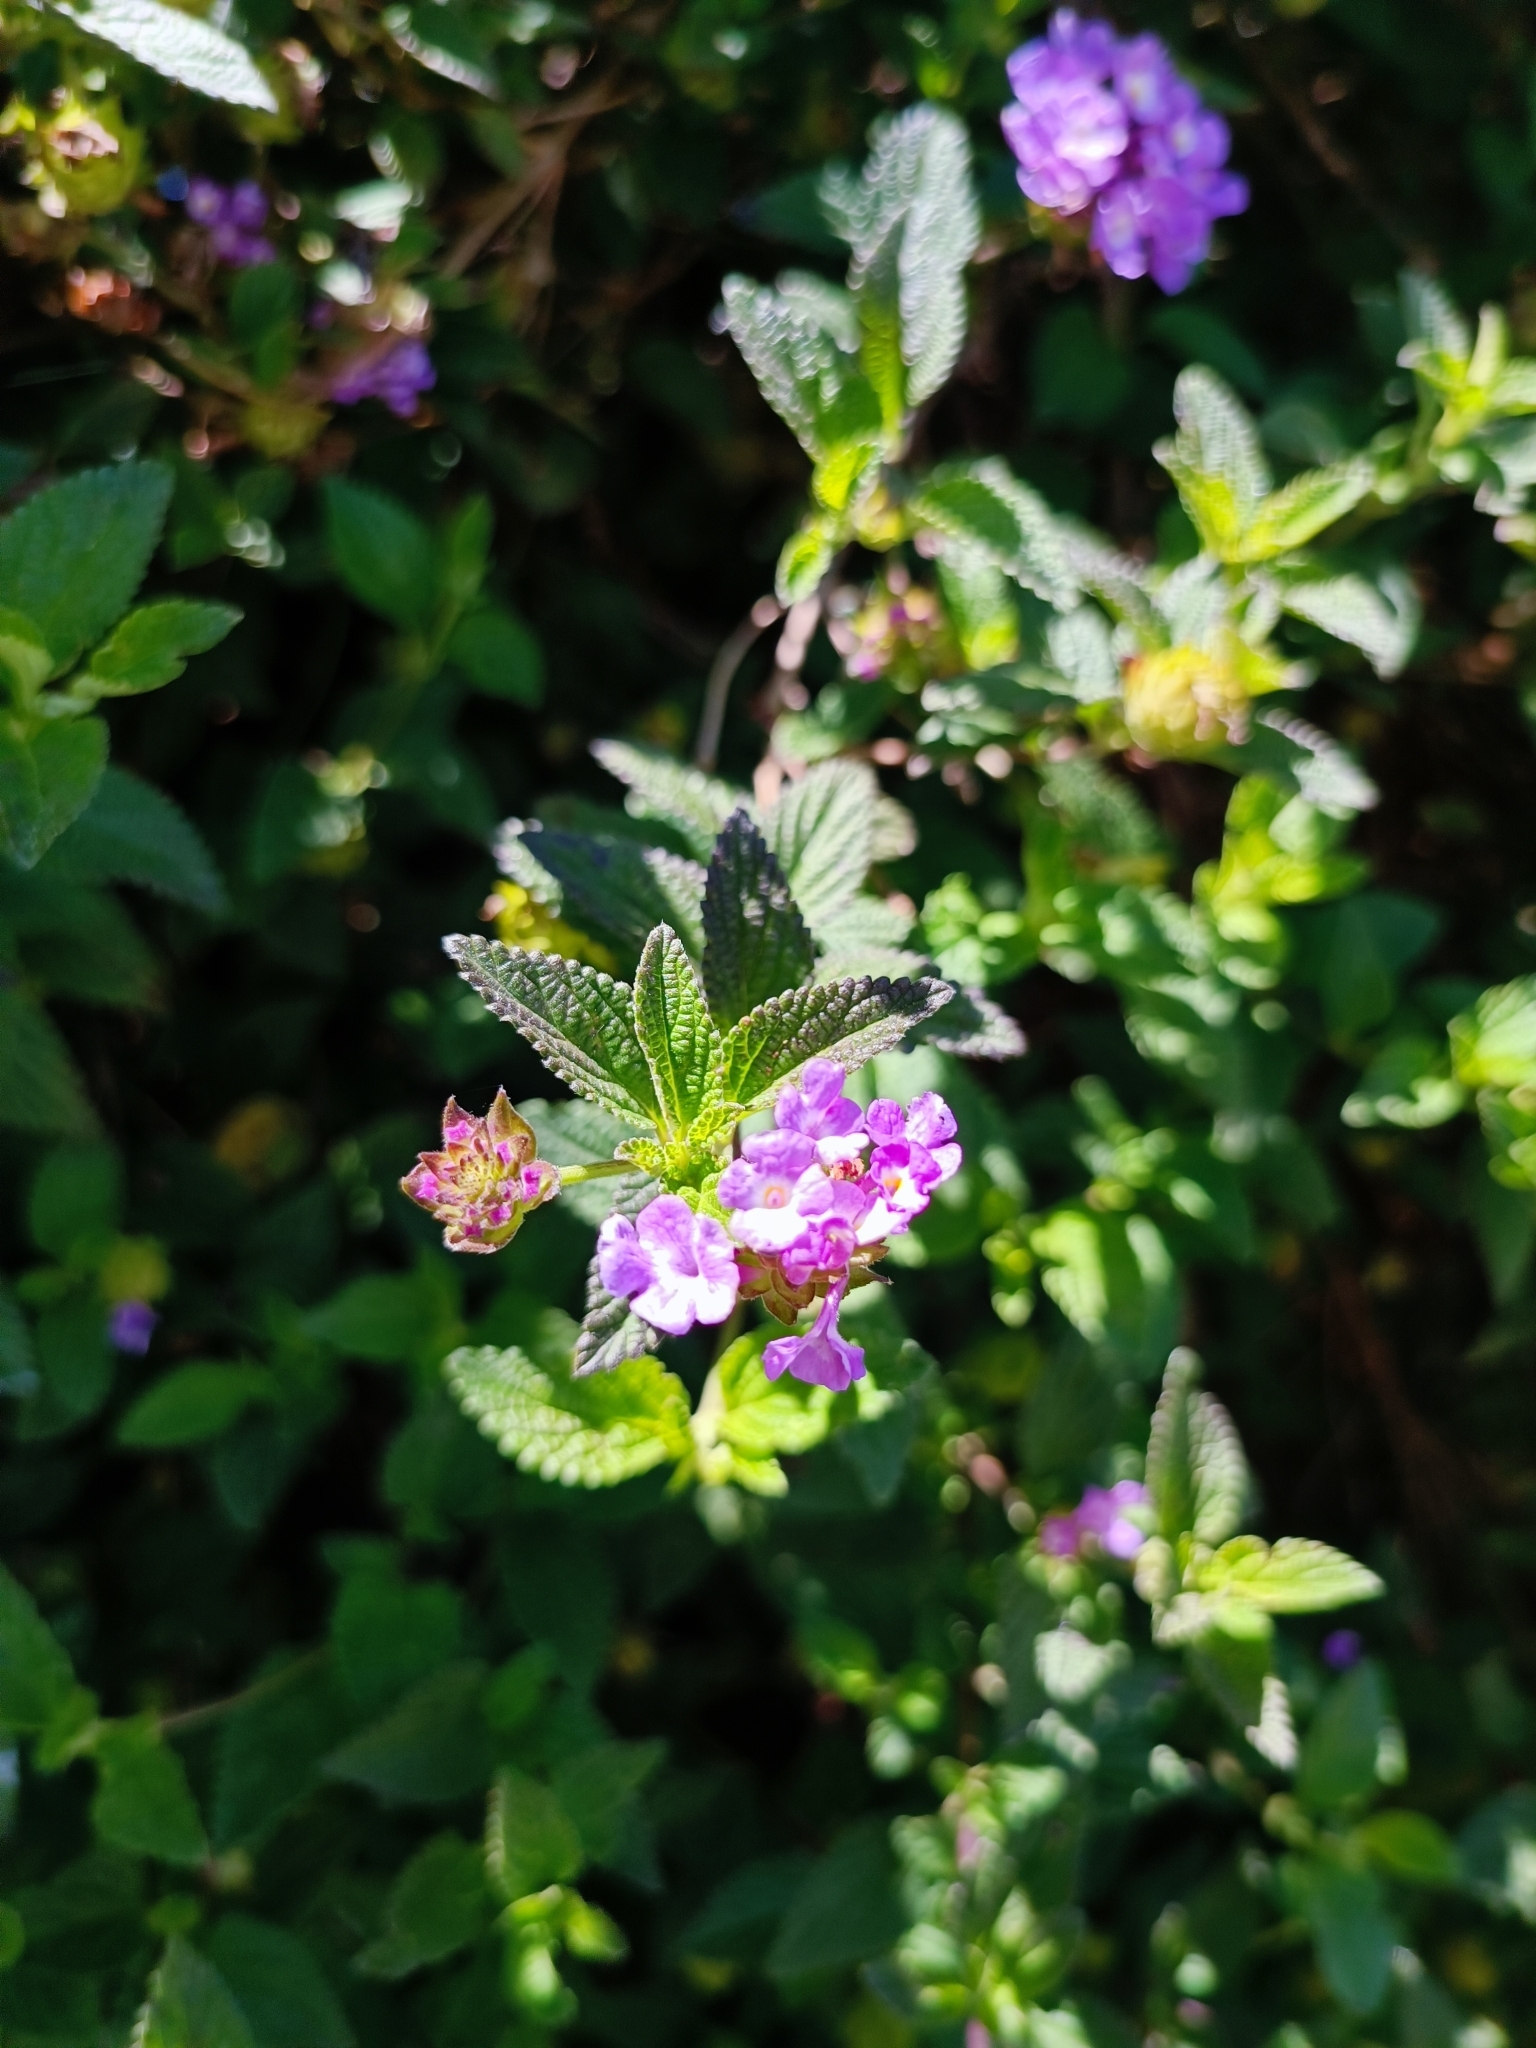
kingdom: Plantae
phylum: Tracheophyta
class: Magnoliopsida
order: Lamiales
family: Verbenaceae
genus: Lantana
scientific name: Lantana montevidensis
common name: Trailing shrubverbena
